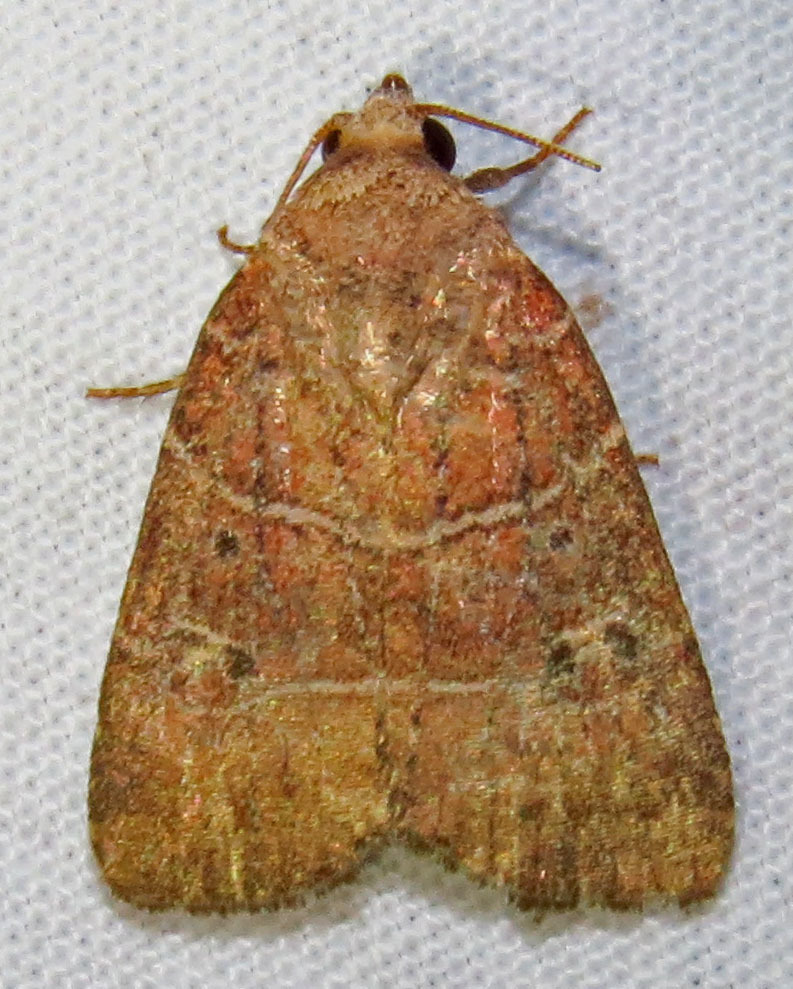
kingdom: Animalia
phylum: Arthropoda
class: Insecta
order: Lepidoptera
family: Noctuidae
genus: Elaphria
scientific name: Elaphria grata
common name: Grateful midget moth
